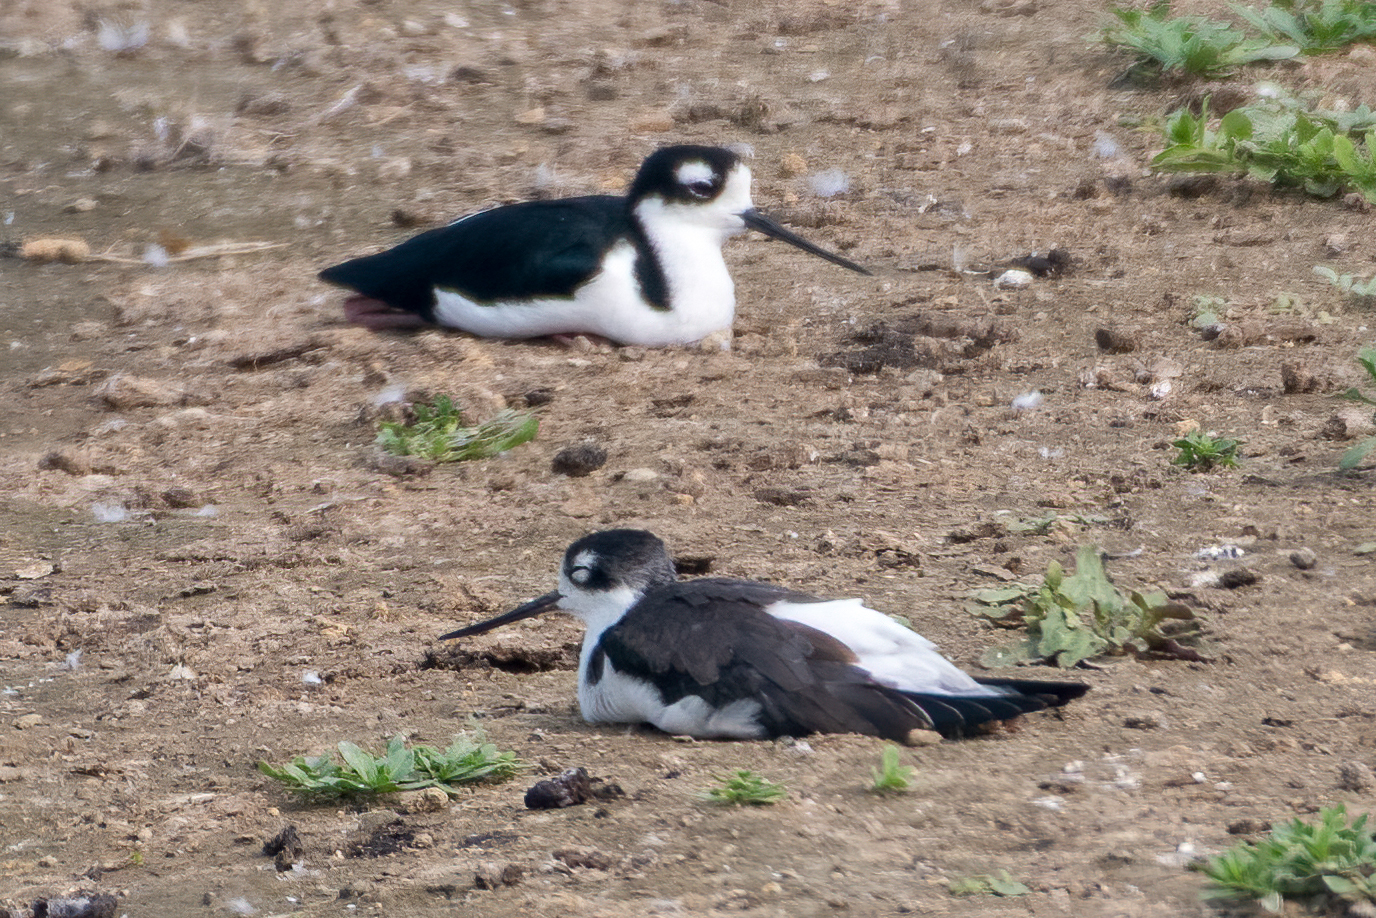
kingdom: Animalia
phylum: Chordata
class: Aves
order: Charadriiformes
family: Recurvirostridae
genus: Himantopus
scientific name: Himantopus mexicanus
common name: Black-necked stilt
